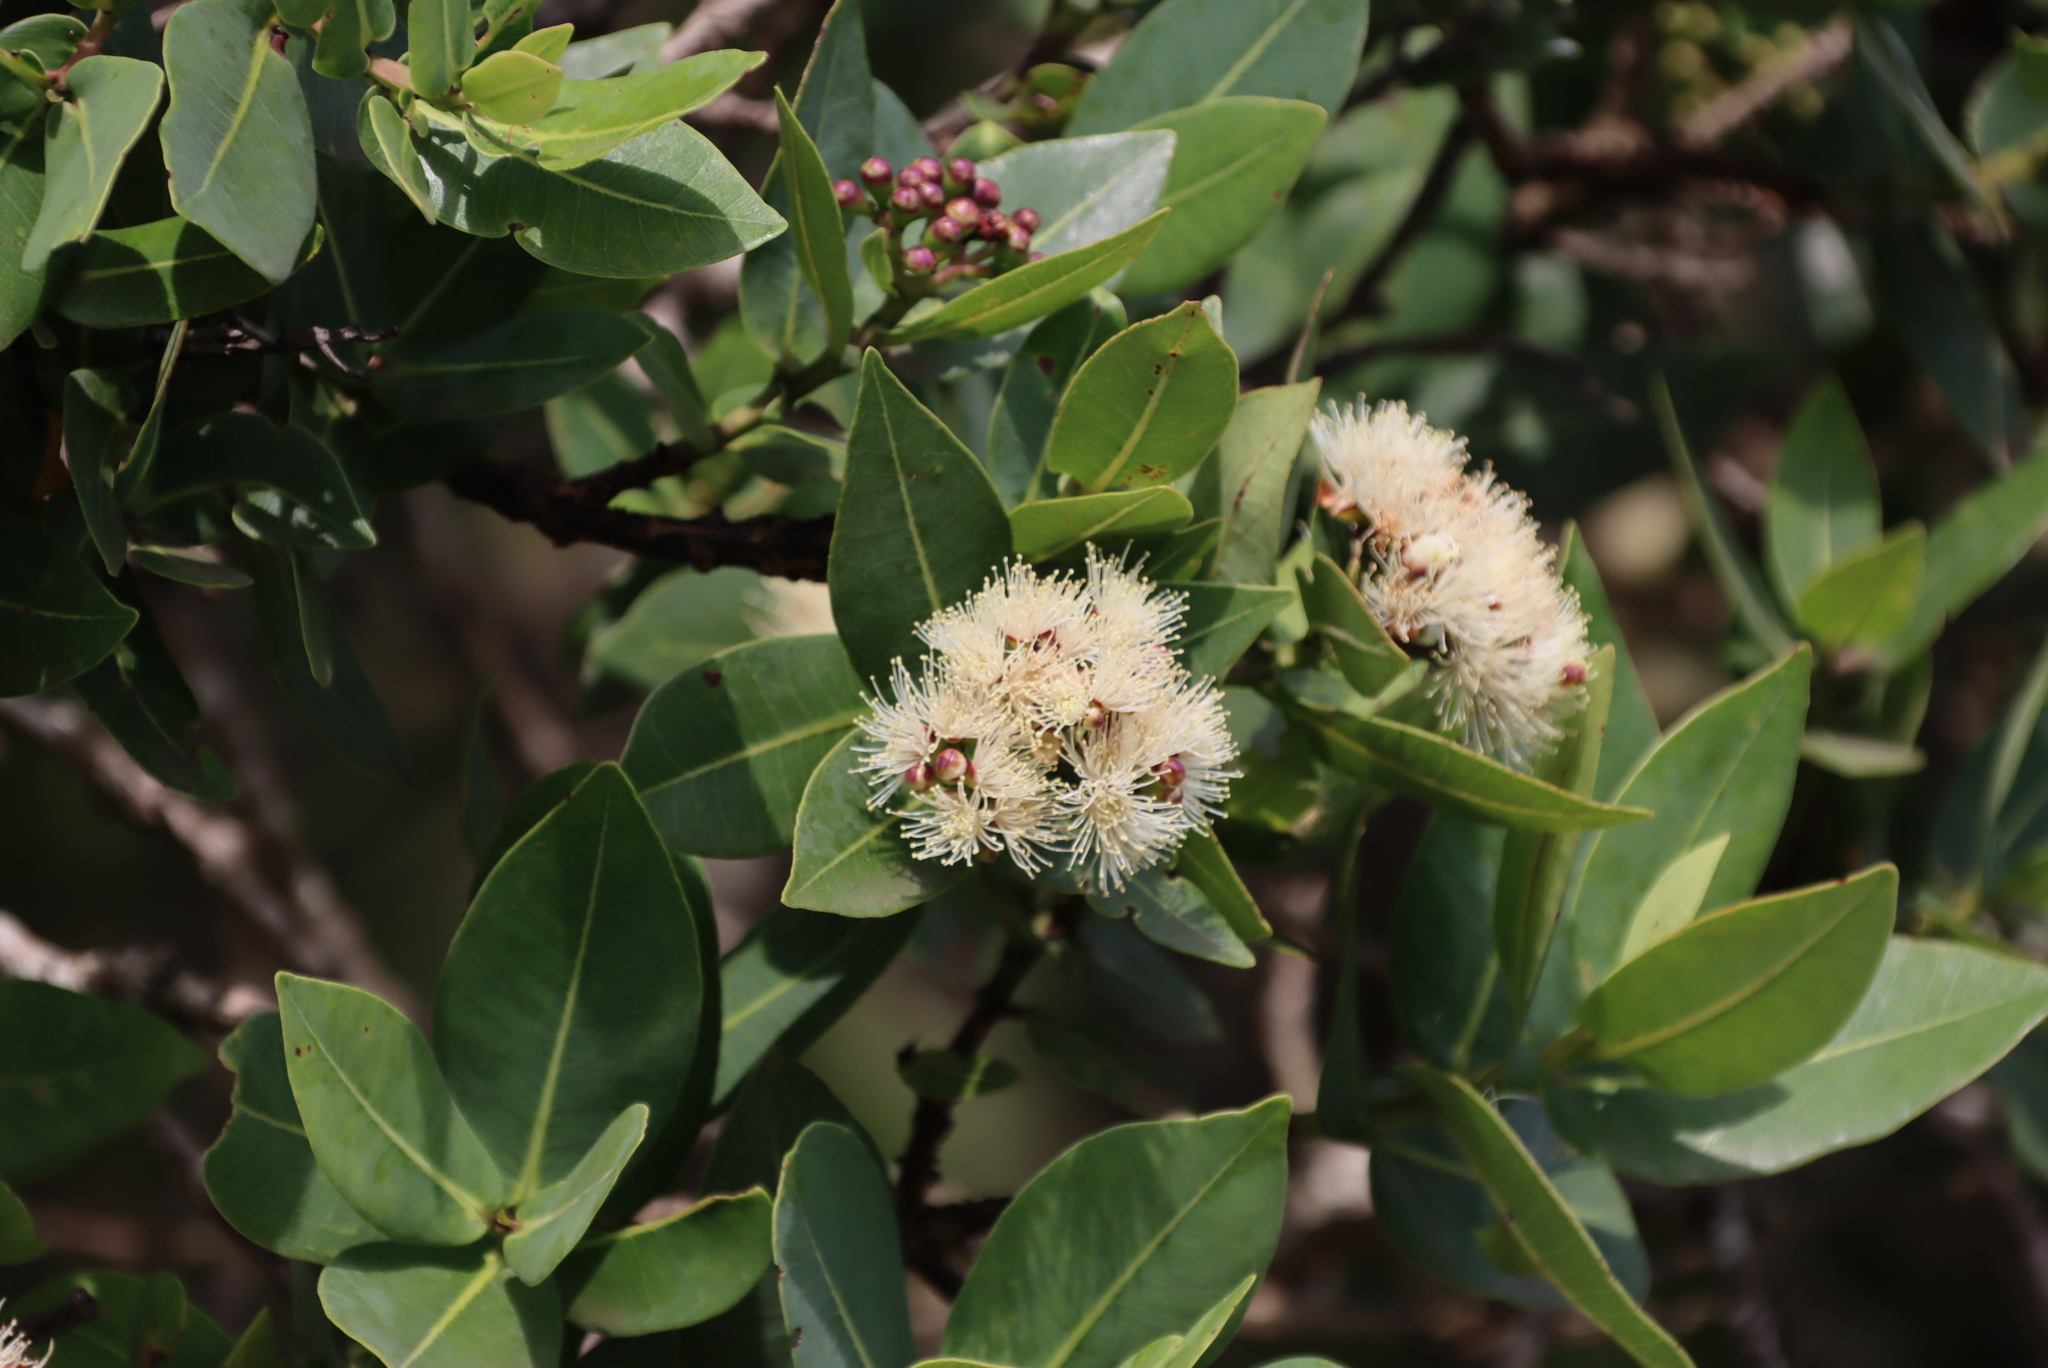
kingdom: Plantae
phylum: Tracheophyta
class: Magnoliopsida
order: Myrtales
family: Myrtaceae
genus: Syzygium
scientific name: Syzygium cordatum
